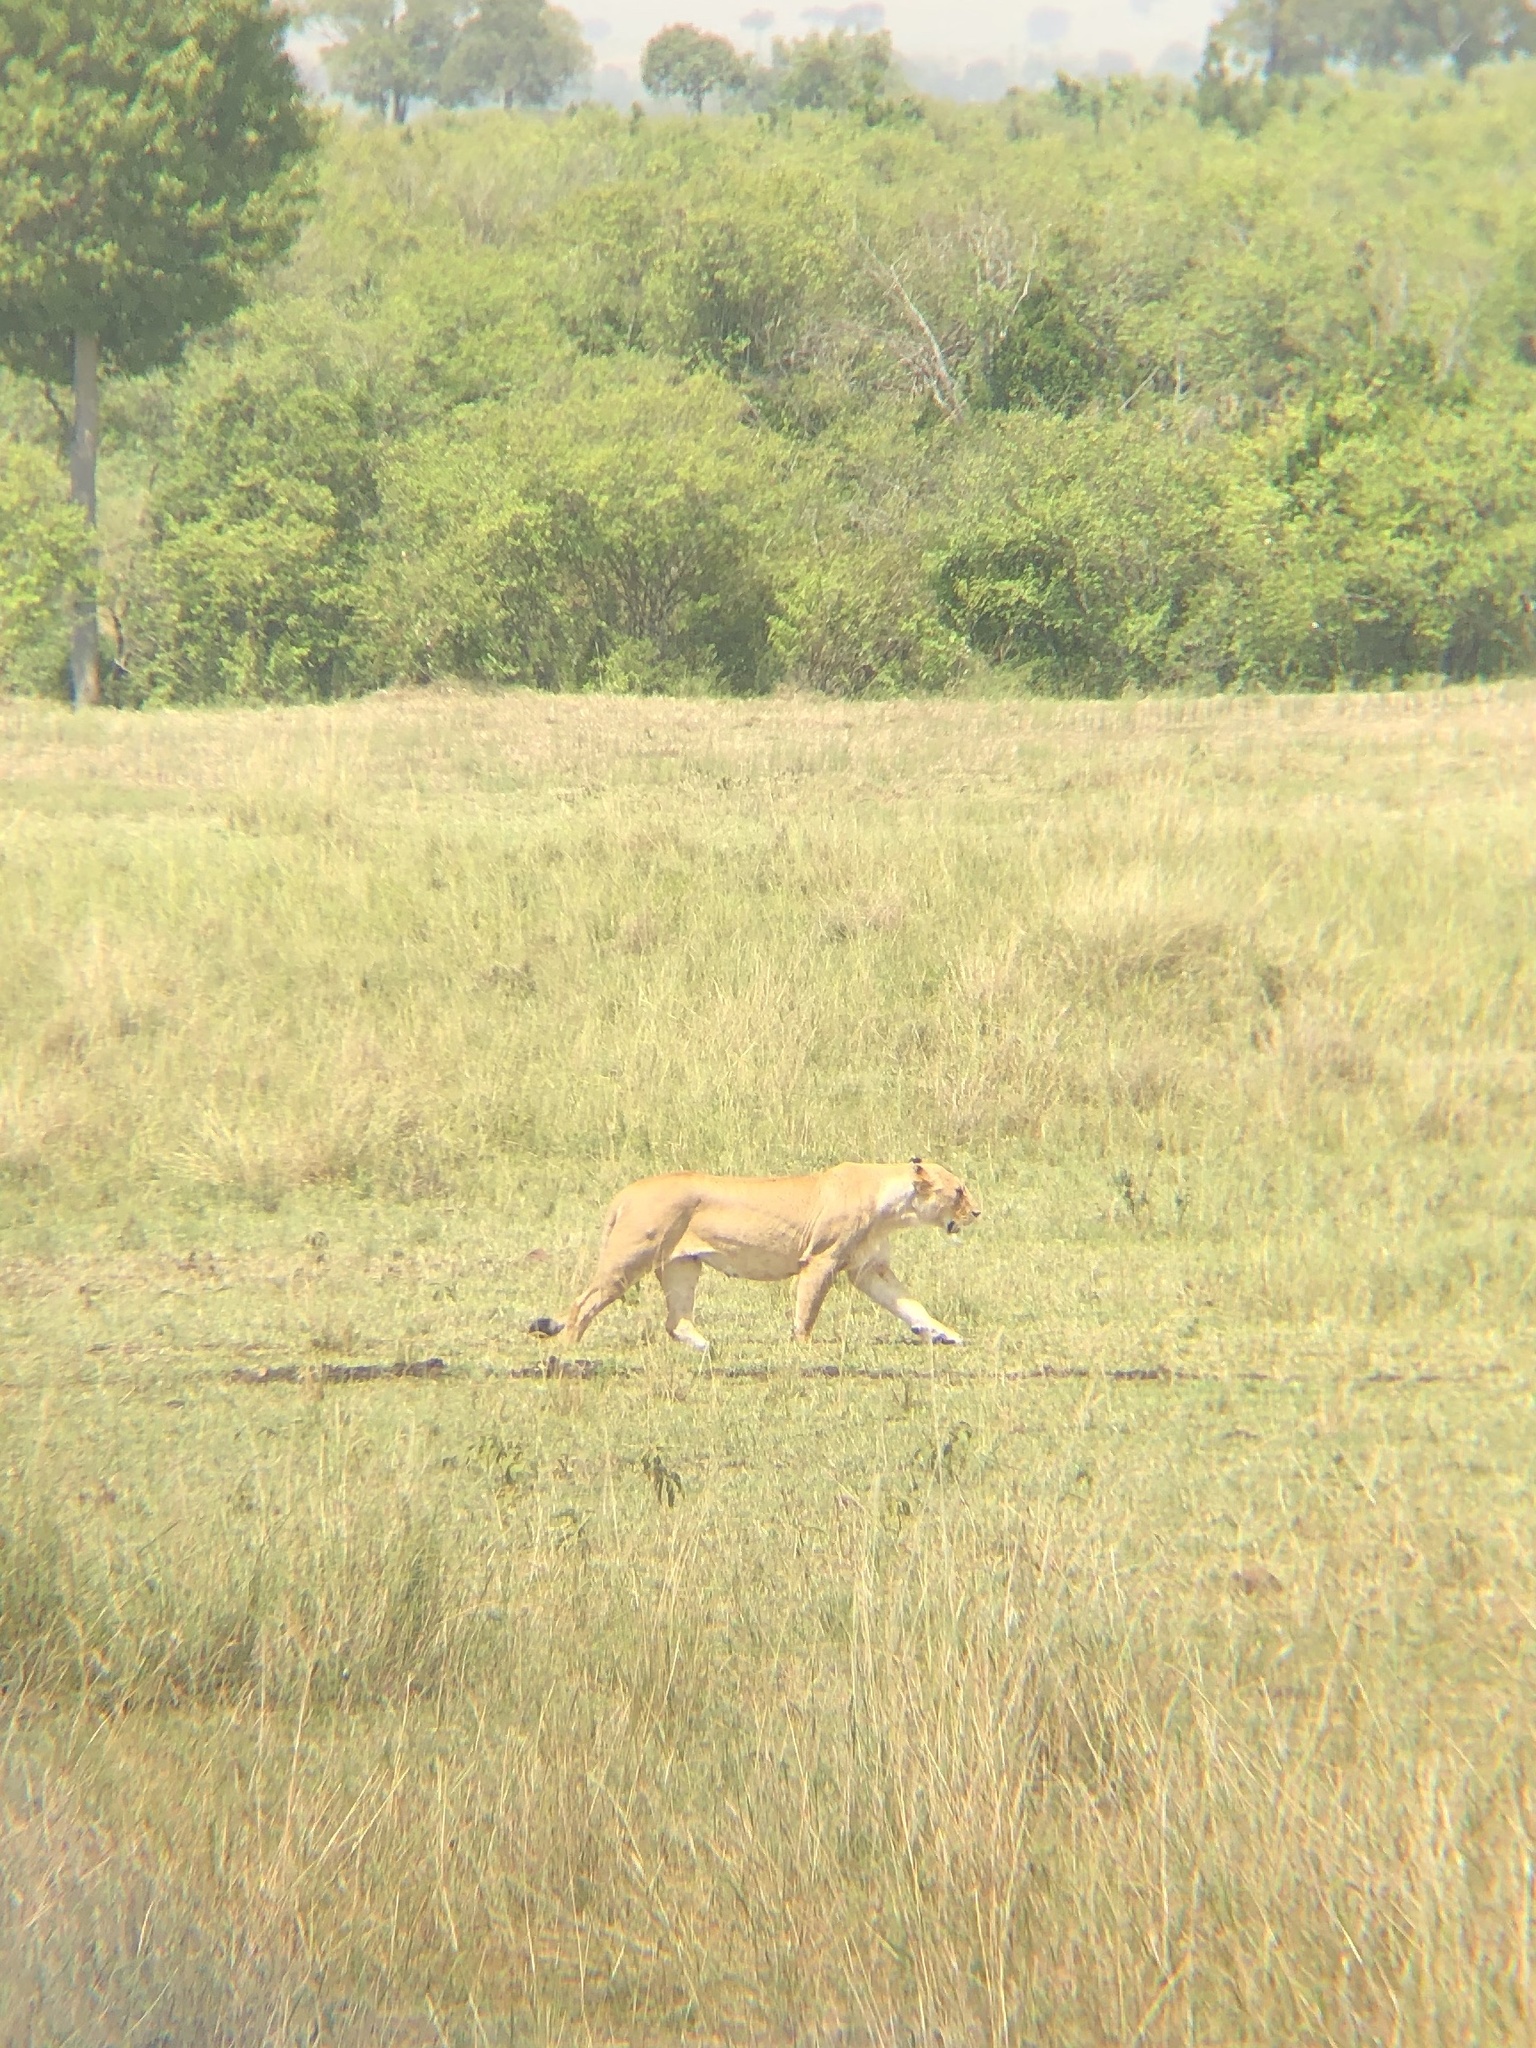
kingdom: Animalia
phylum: Chordata
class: Mammalia
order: Carnivora
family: Felidae
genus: Panthera
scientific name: Panthera leo
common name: Lion
